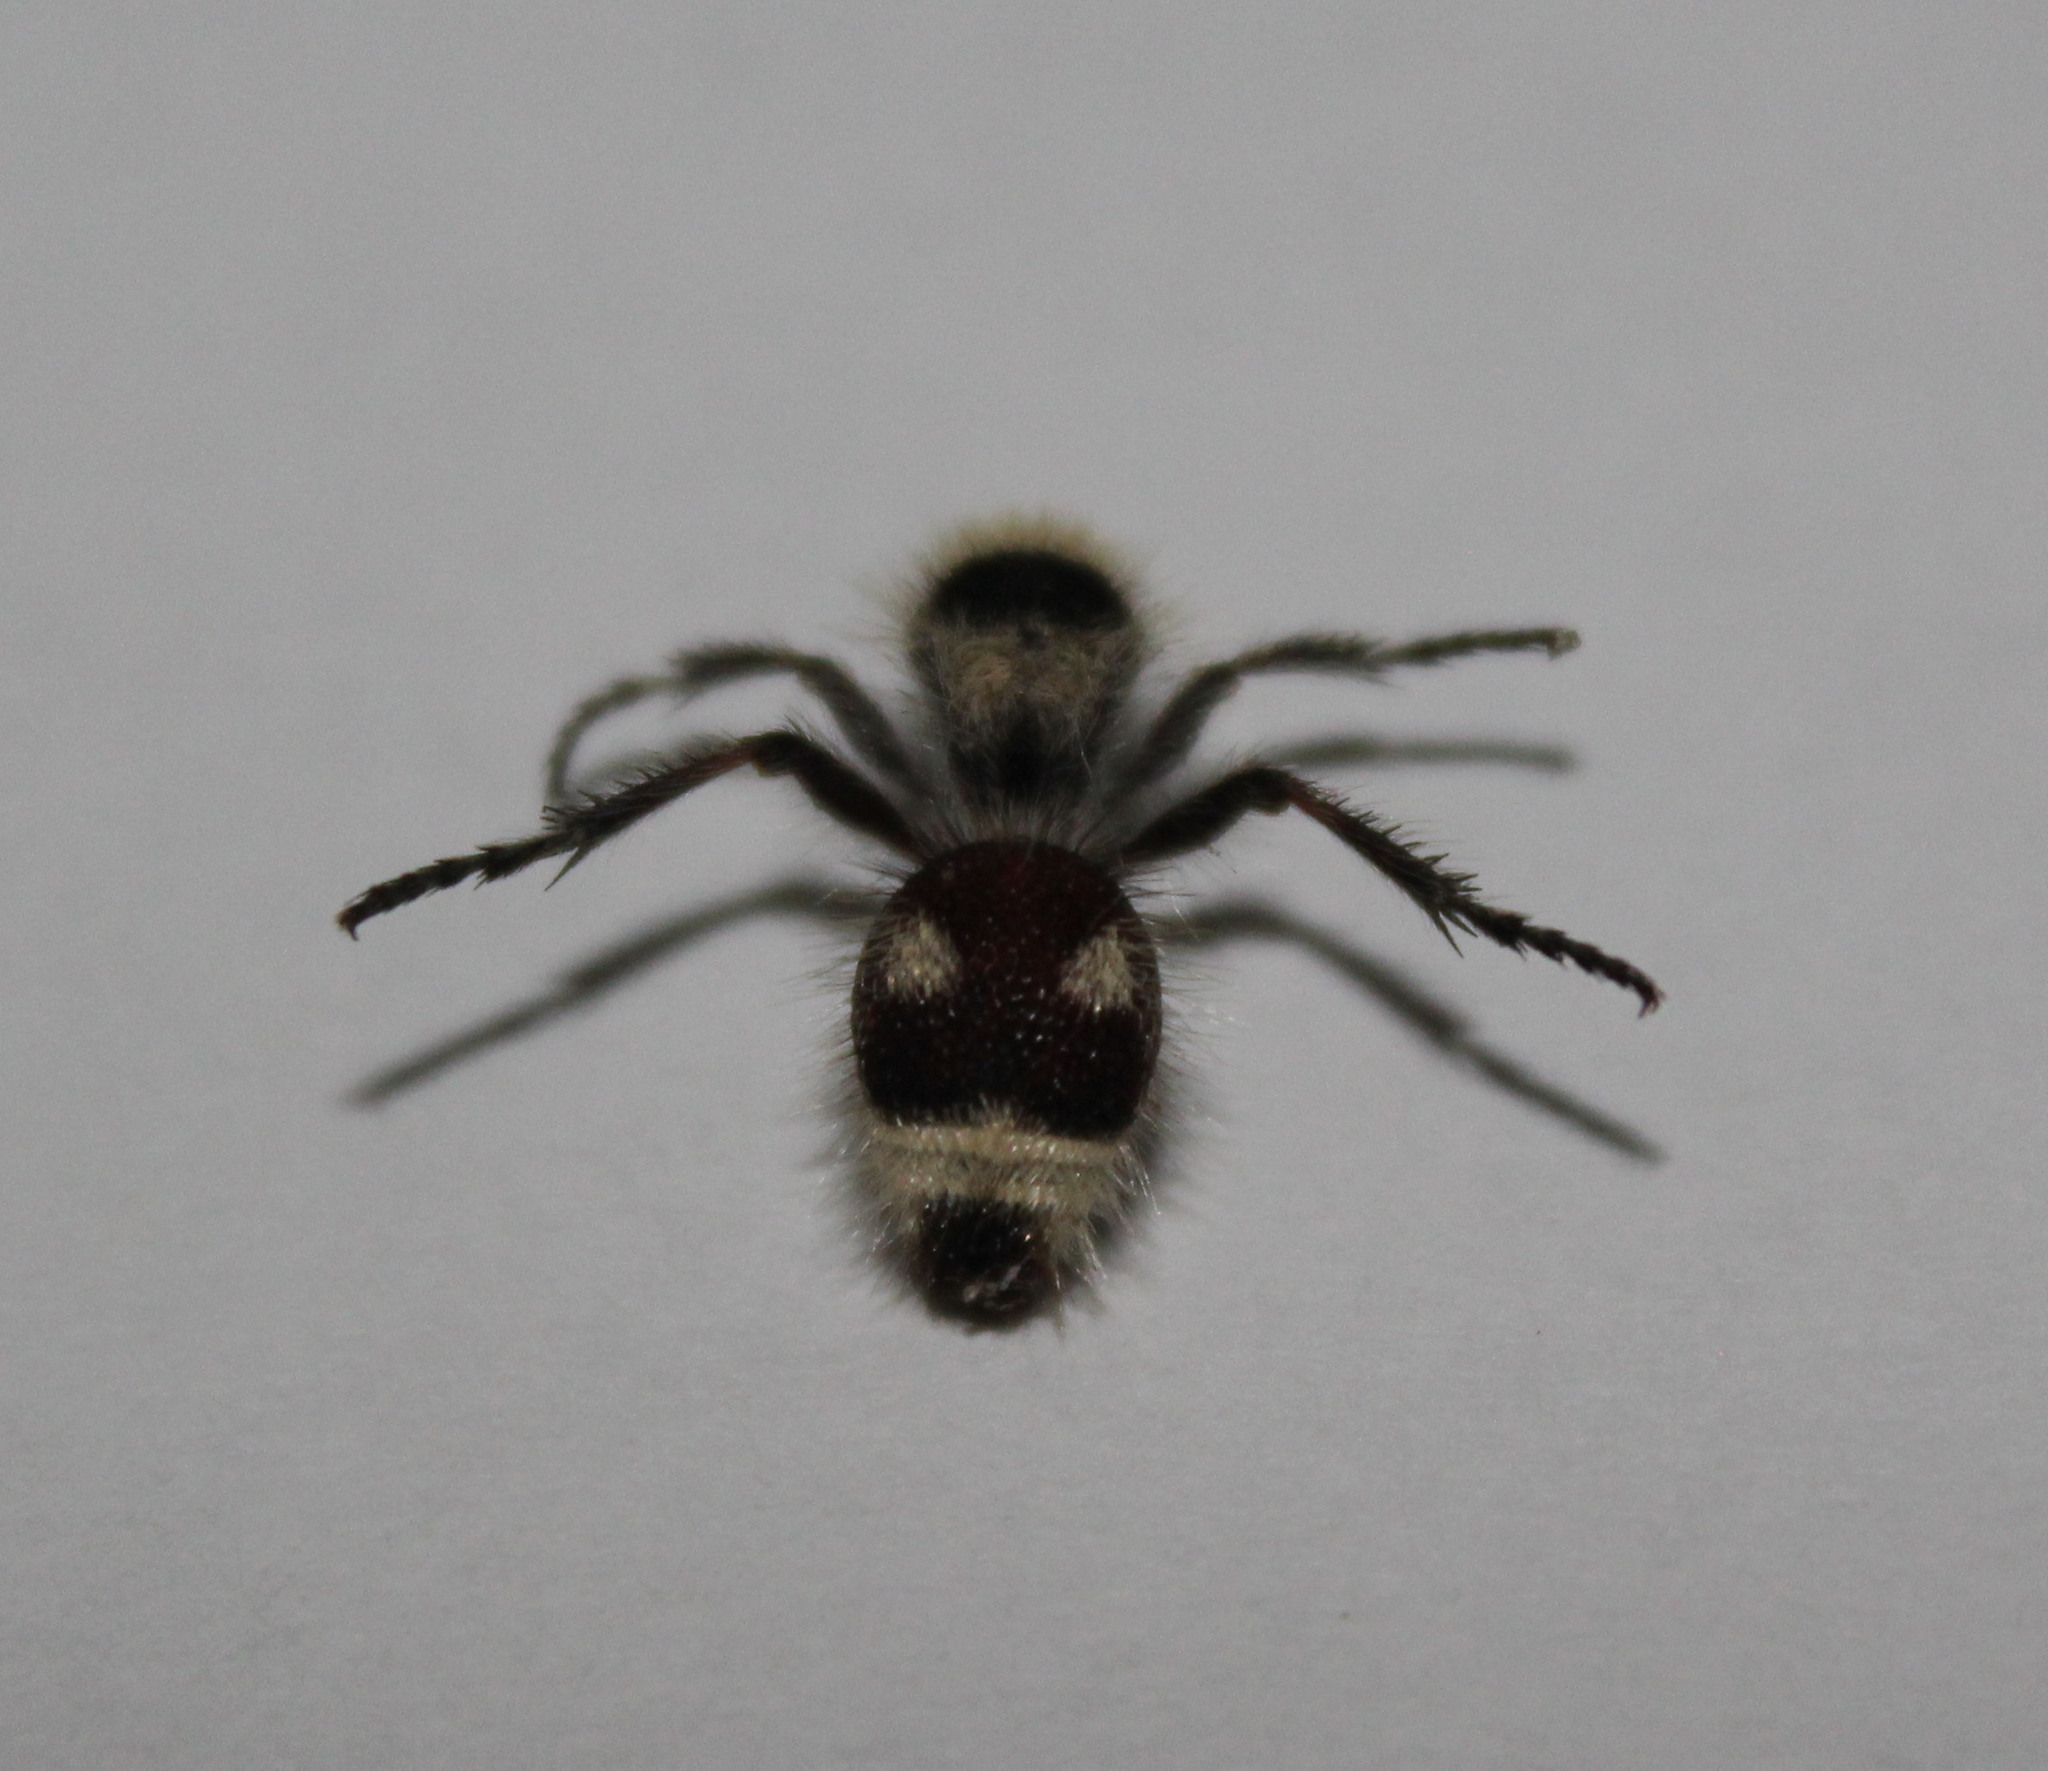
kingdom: Animalia
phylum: Arthropoda
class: Insecta
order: Hymenoptera
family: Mutillidae
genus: Dasymutilla
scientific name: Dasymutilla
